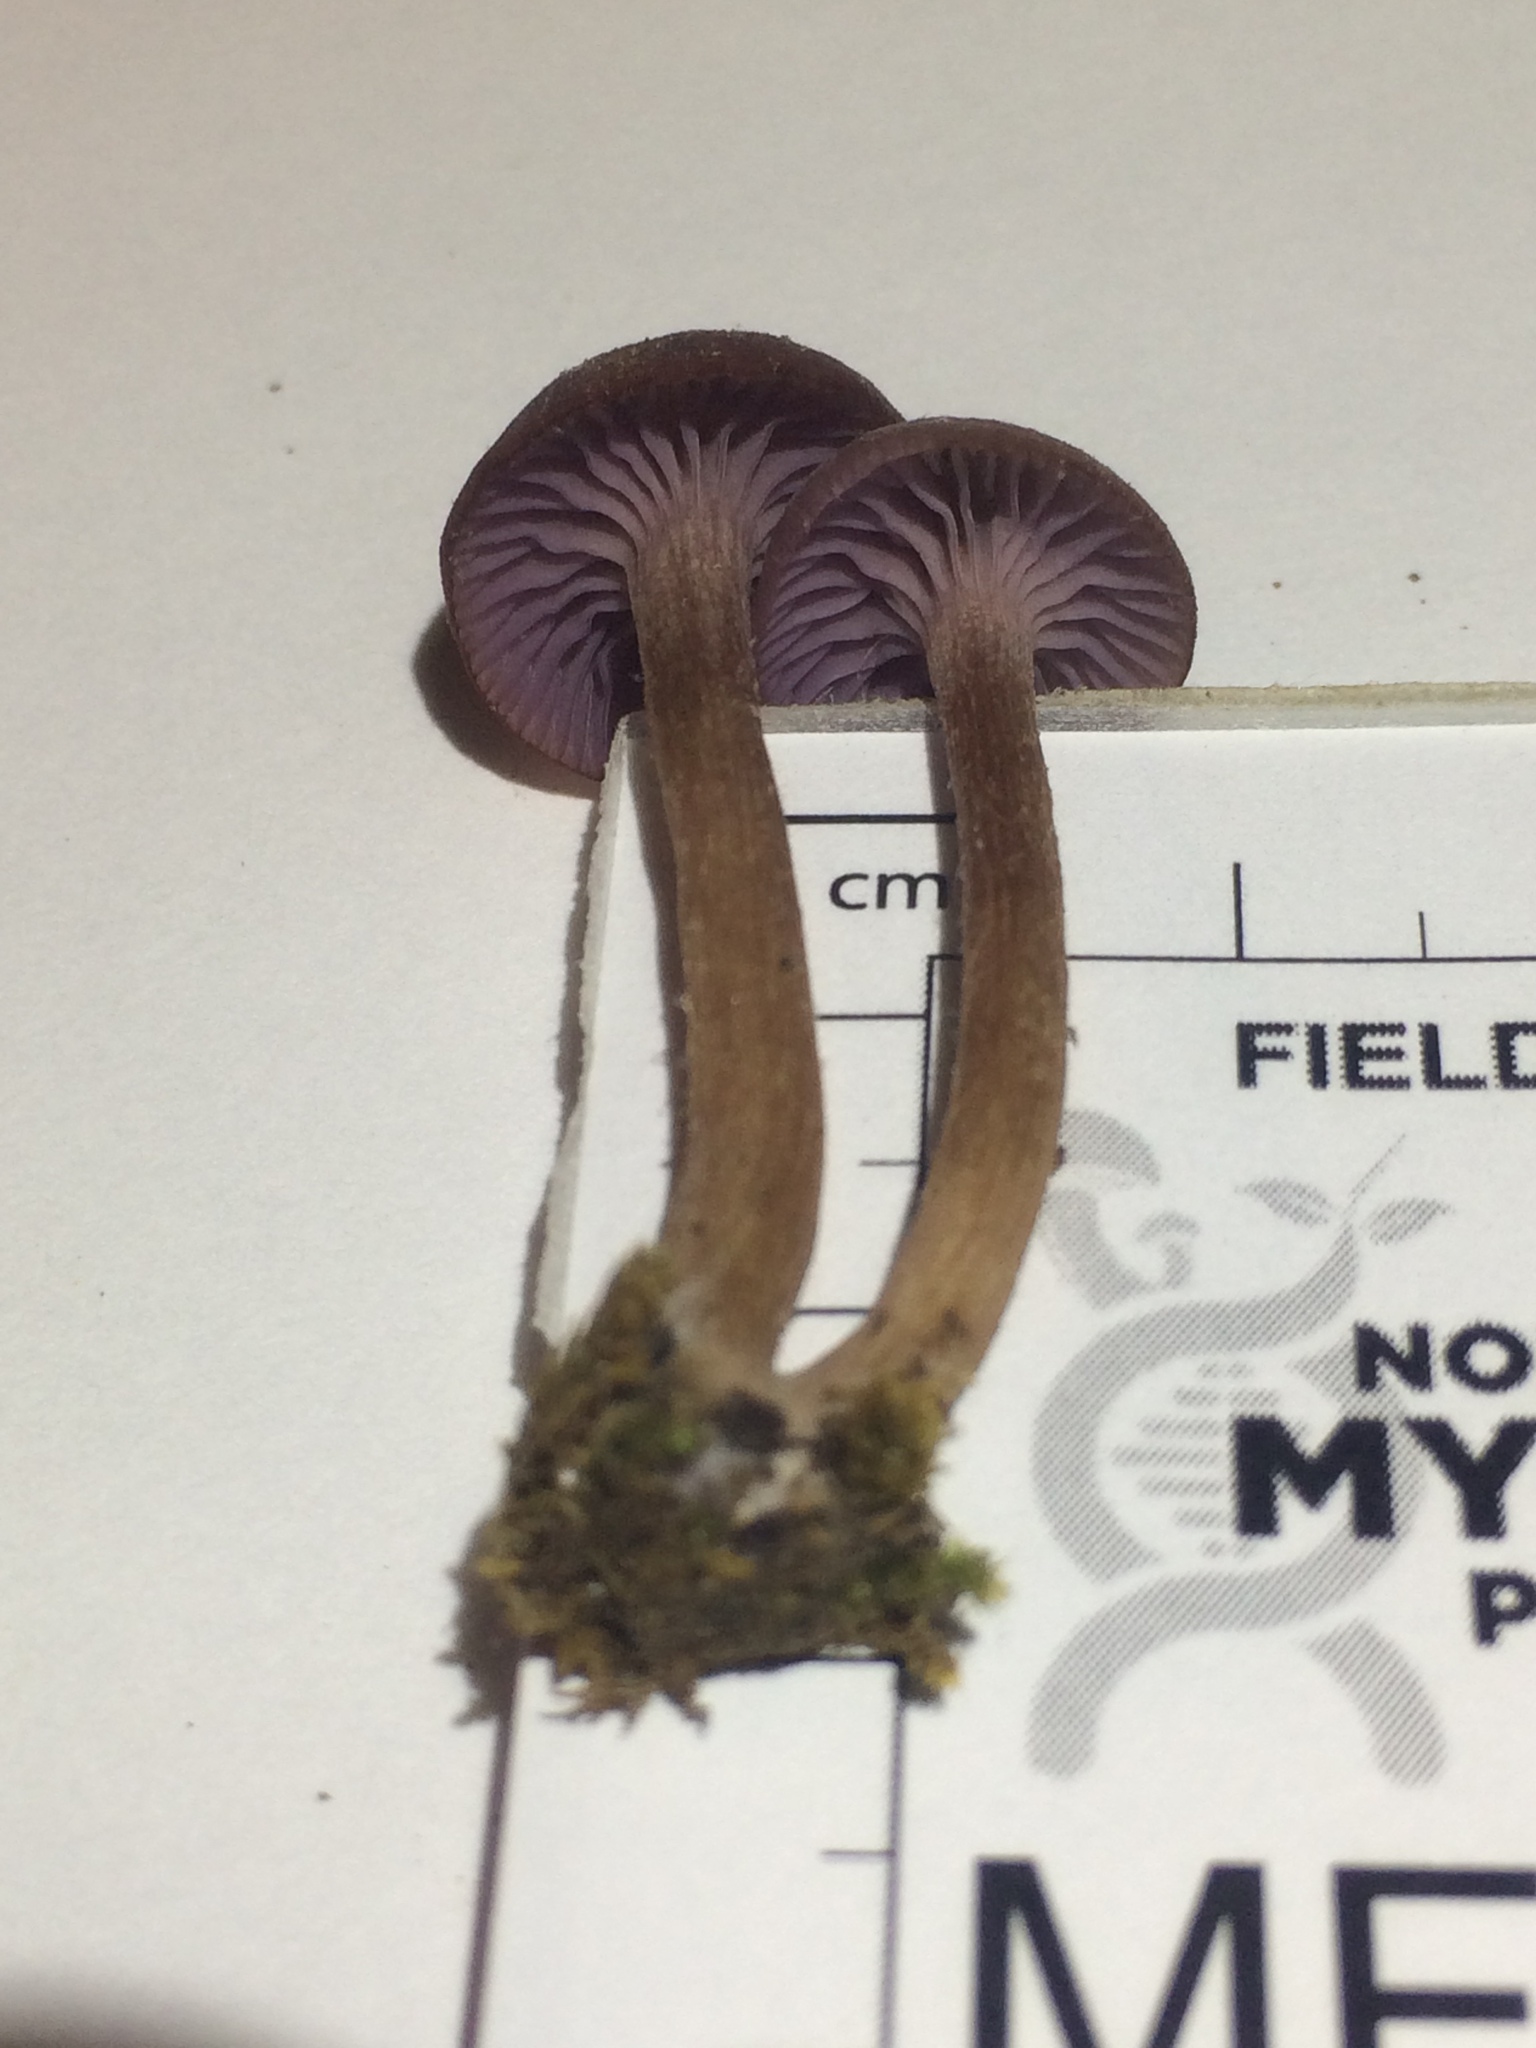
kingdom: Fungi
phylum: Basidiomycota
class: Agaricomycetes
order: Agaricales
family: Hydnangiaceae
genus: Laccaria
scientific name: Laccaria amethystina
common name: Amethyst deceiver
